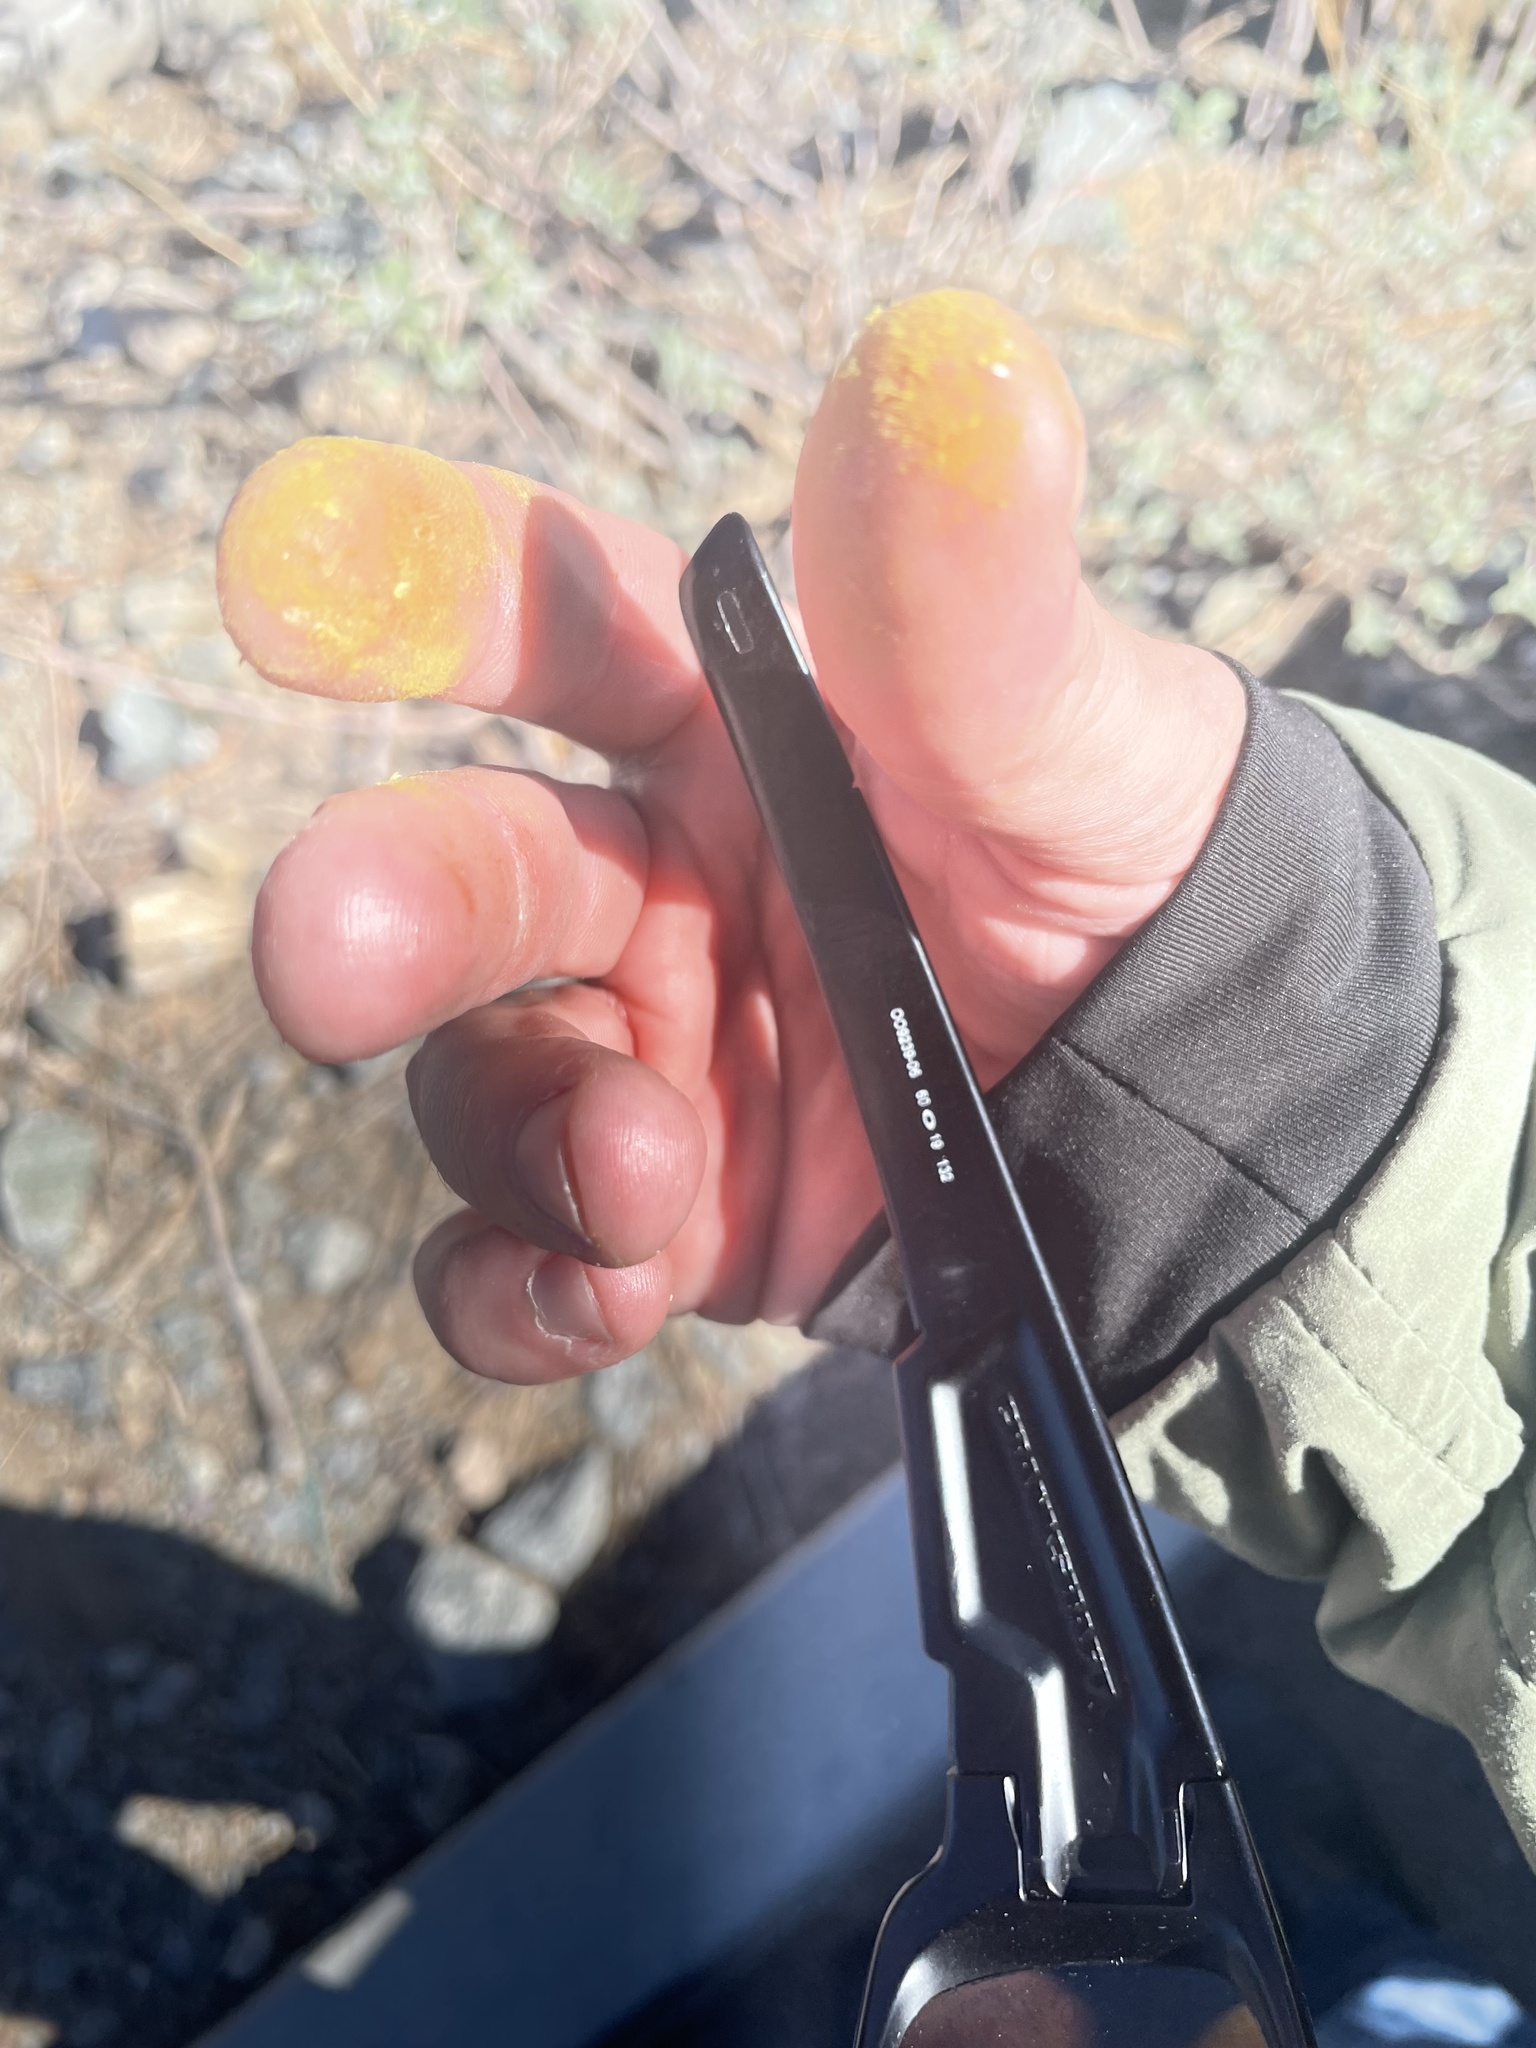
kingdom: Fungi
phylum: Basidiomycota
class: Agaricomycetes
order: Agaricales
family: Agaricaceae
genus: Podaxis
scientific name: Podaxis pistillaris
